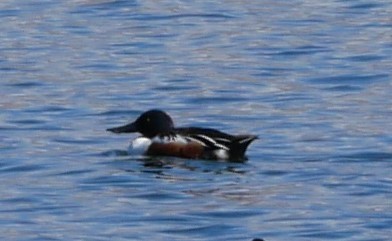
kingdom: Animalia
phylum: Chordata
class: Aves
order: Anseriformes
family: Anatidae
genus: Spatula
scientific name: Spatula clypeata
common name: Northern shoveler
